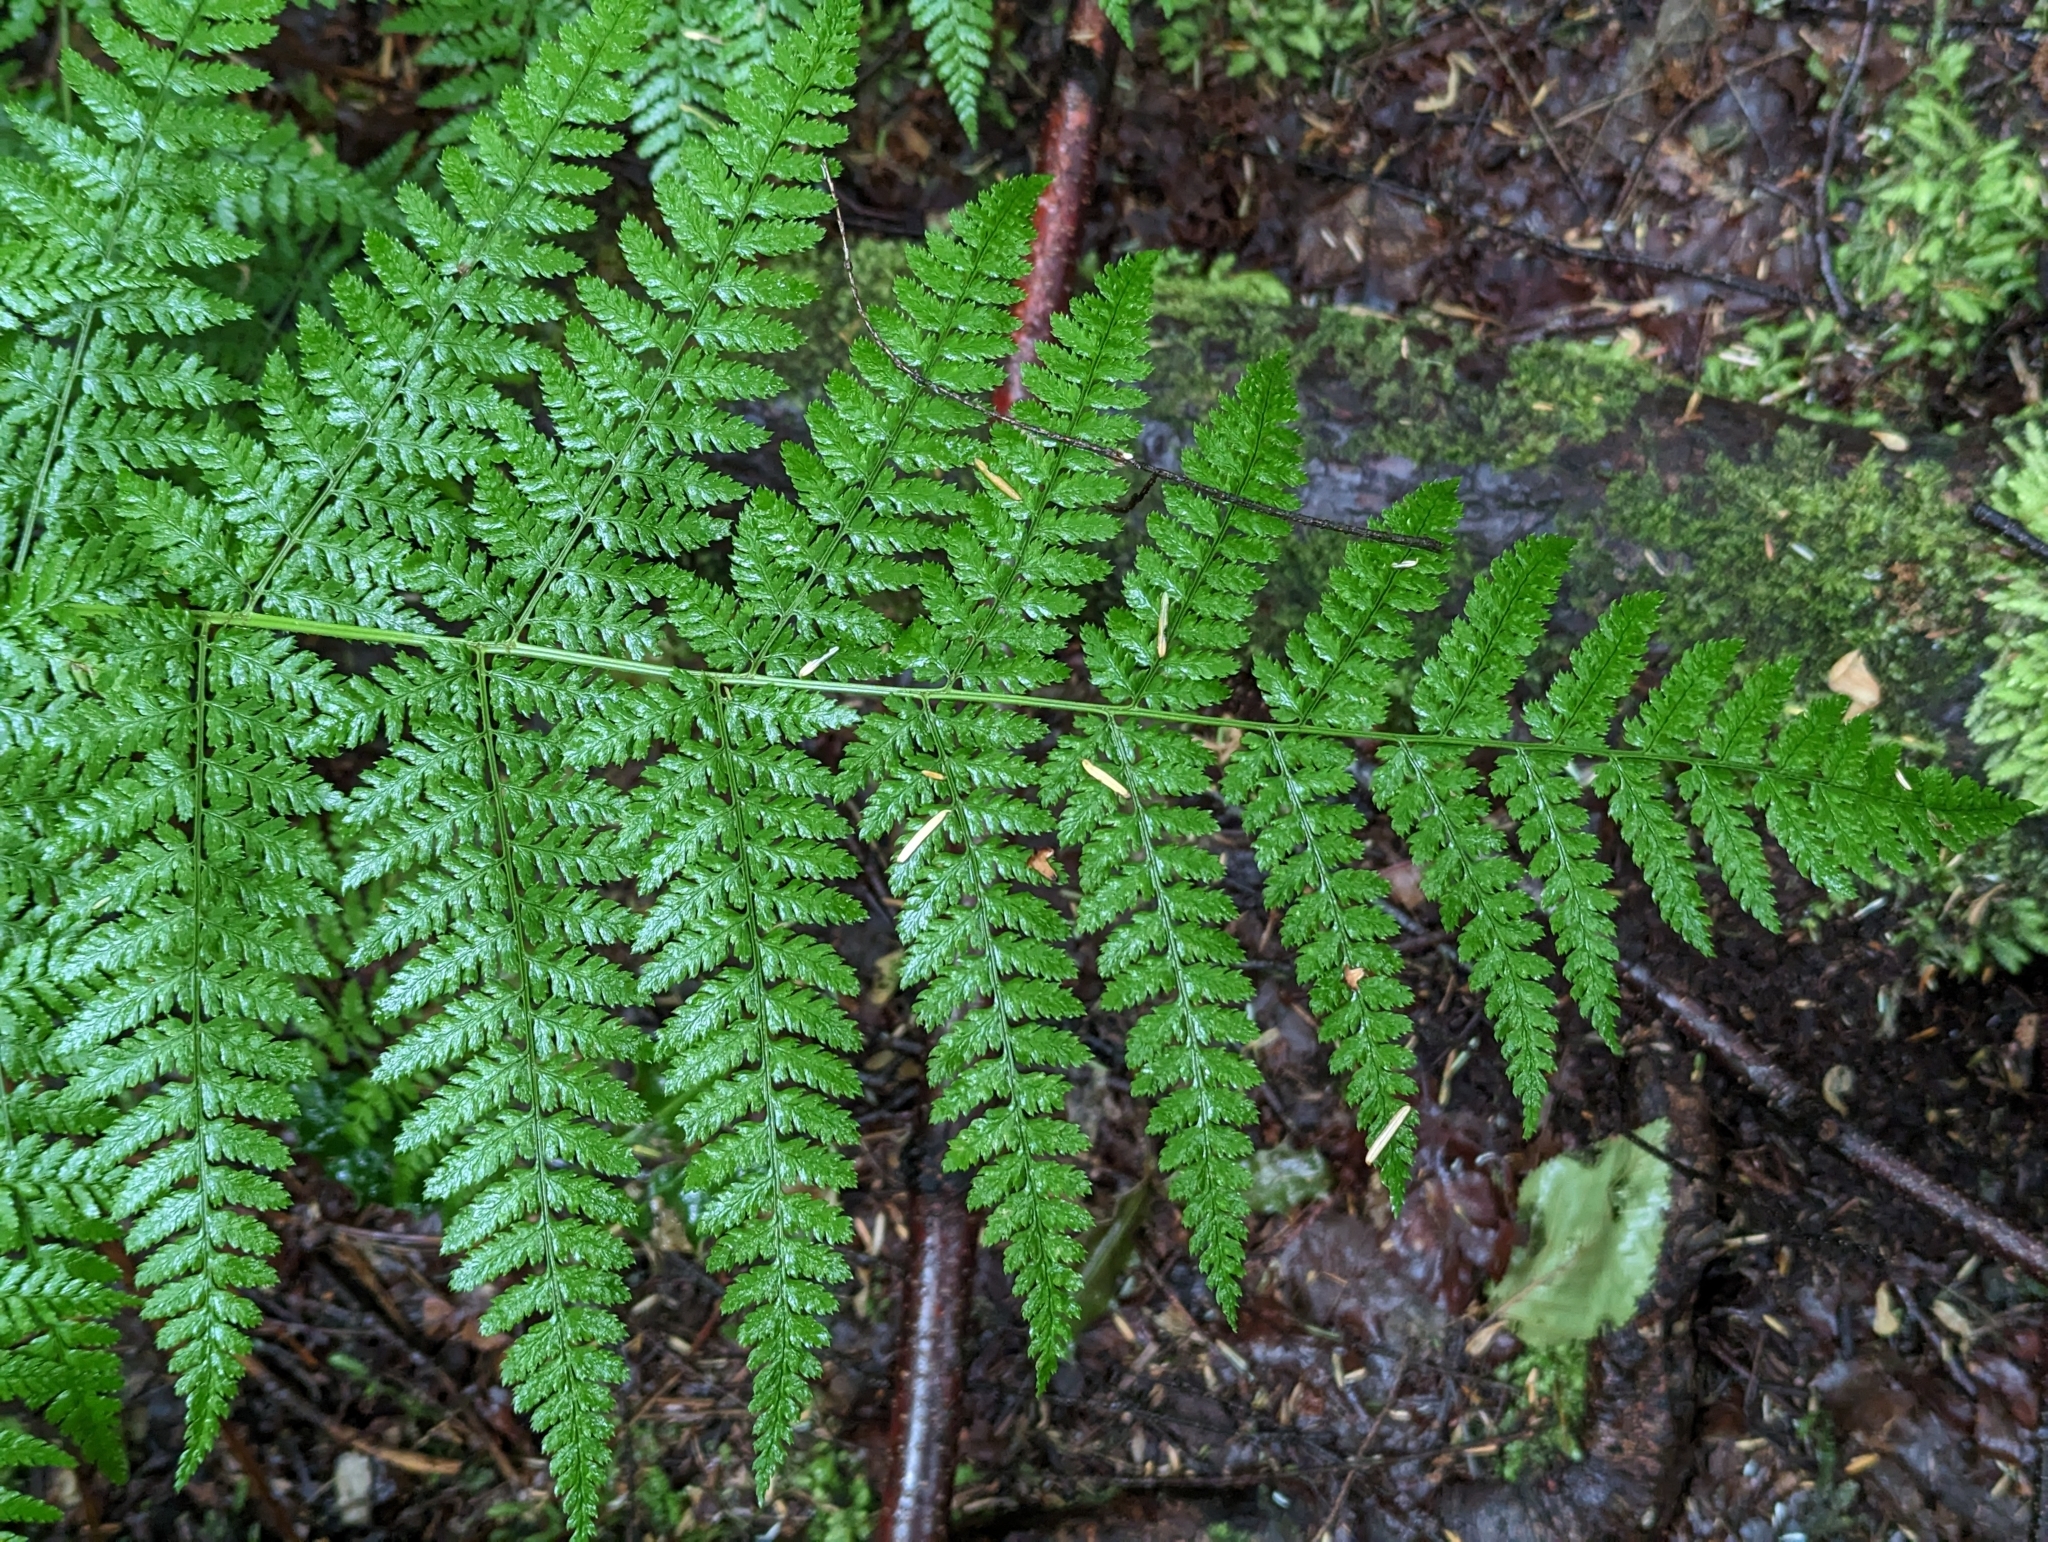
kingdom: Plantae
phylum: Tracheophyta
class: Polypodiopsida
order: Polypodiales
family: Dryopteridaceae
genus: Dryopteris
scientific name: Dryopteris expansa
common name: Northern buckler fern
